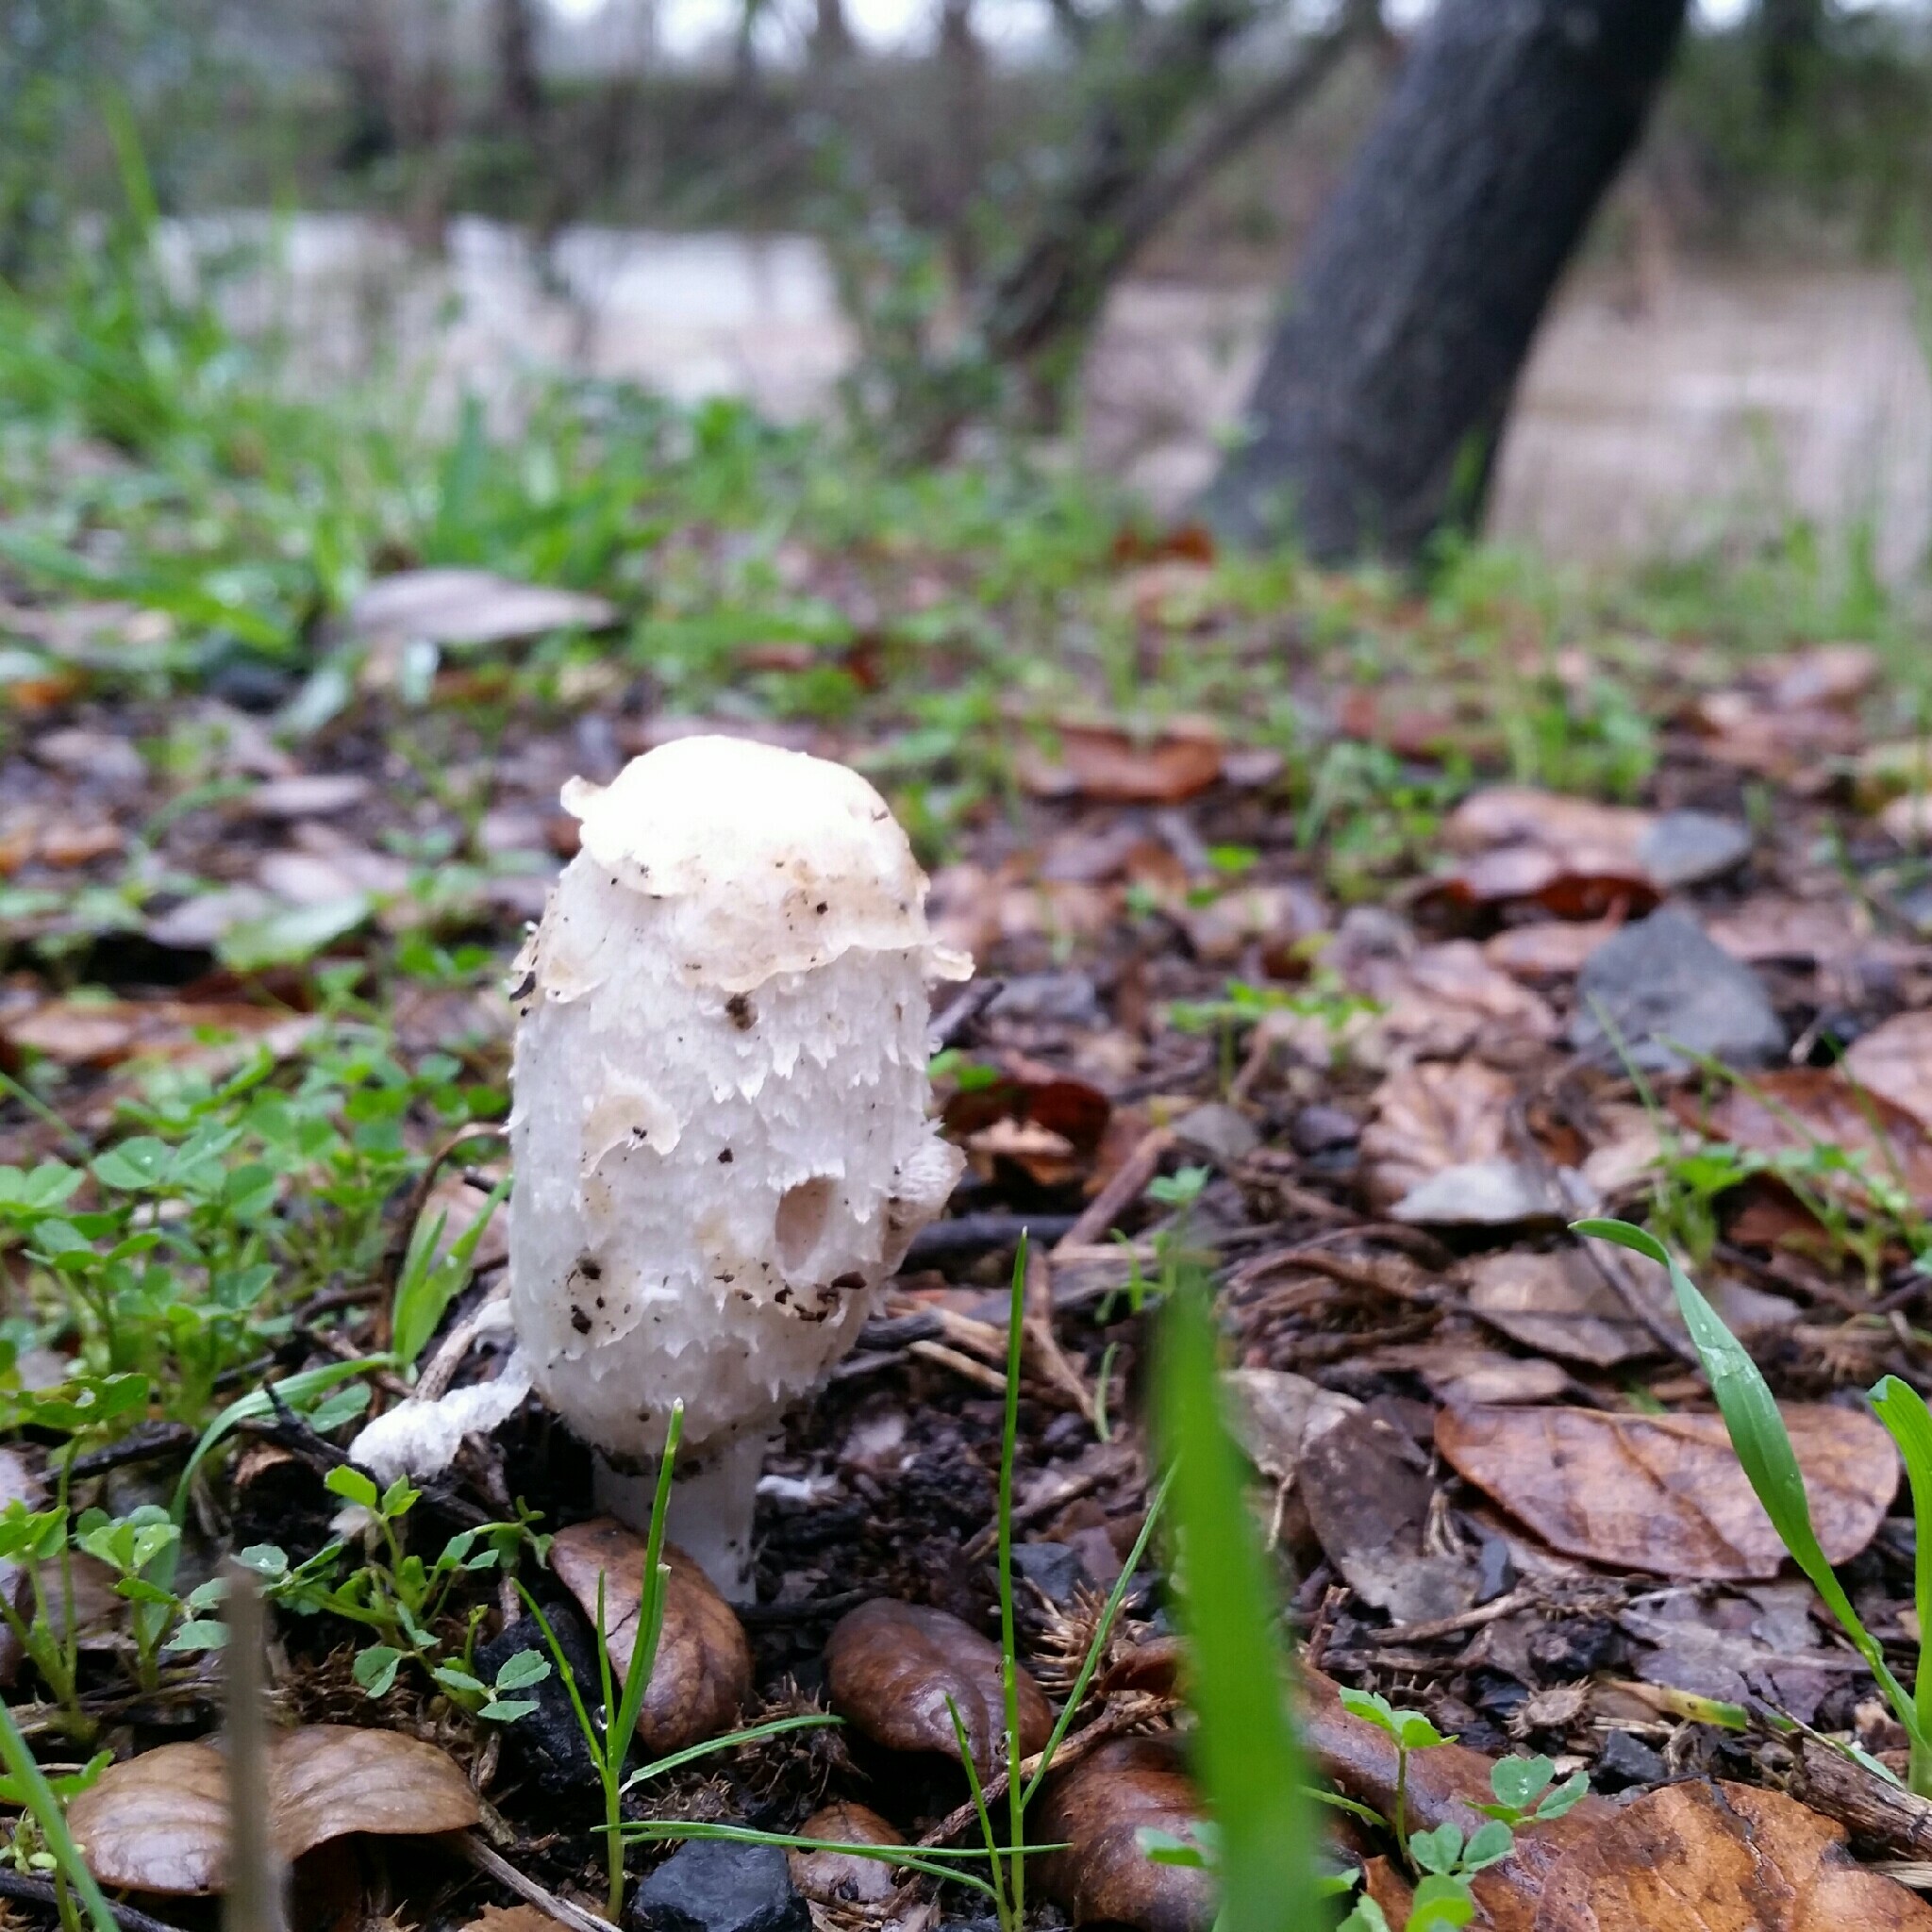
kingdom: Fungi
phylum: Basidiomycota
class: Agaricomycetes
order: Agaricales
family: Agaricaceae
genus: Coprinus
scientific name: Coprinus comatus
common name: Lawyer's wig
